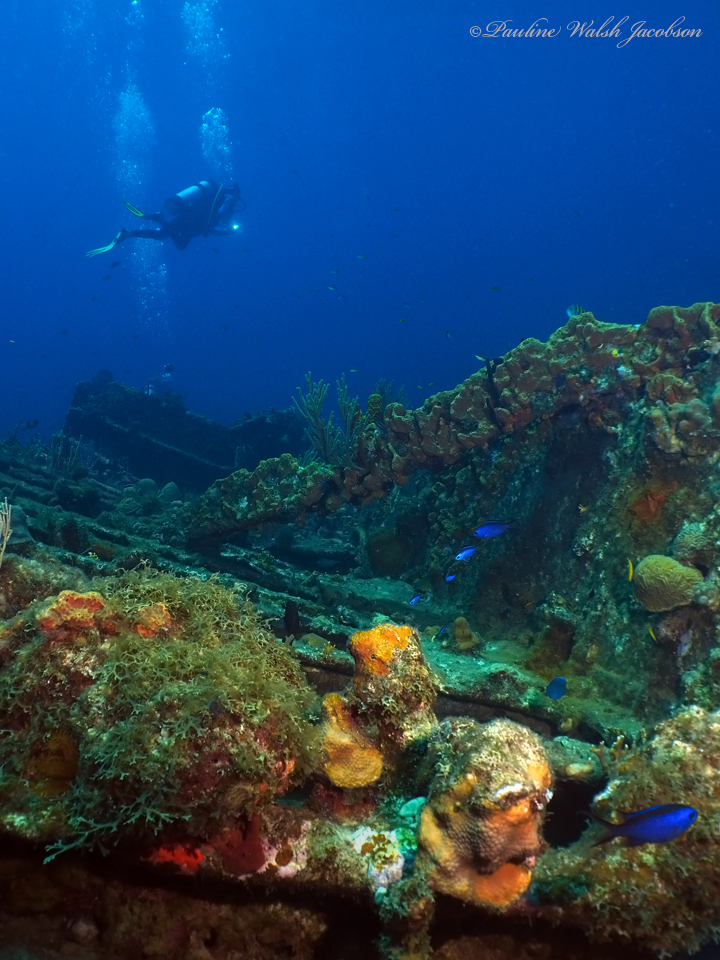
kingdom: Animalia
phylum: Chordata
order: Perciformes
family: Pomacentridae
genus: Chromis
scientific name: Chromis cyanea
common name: Blue chromis
